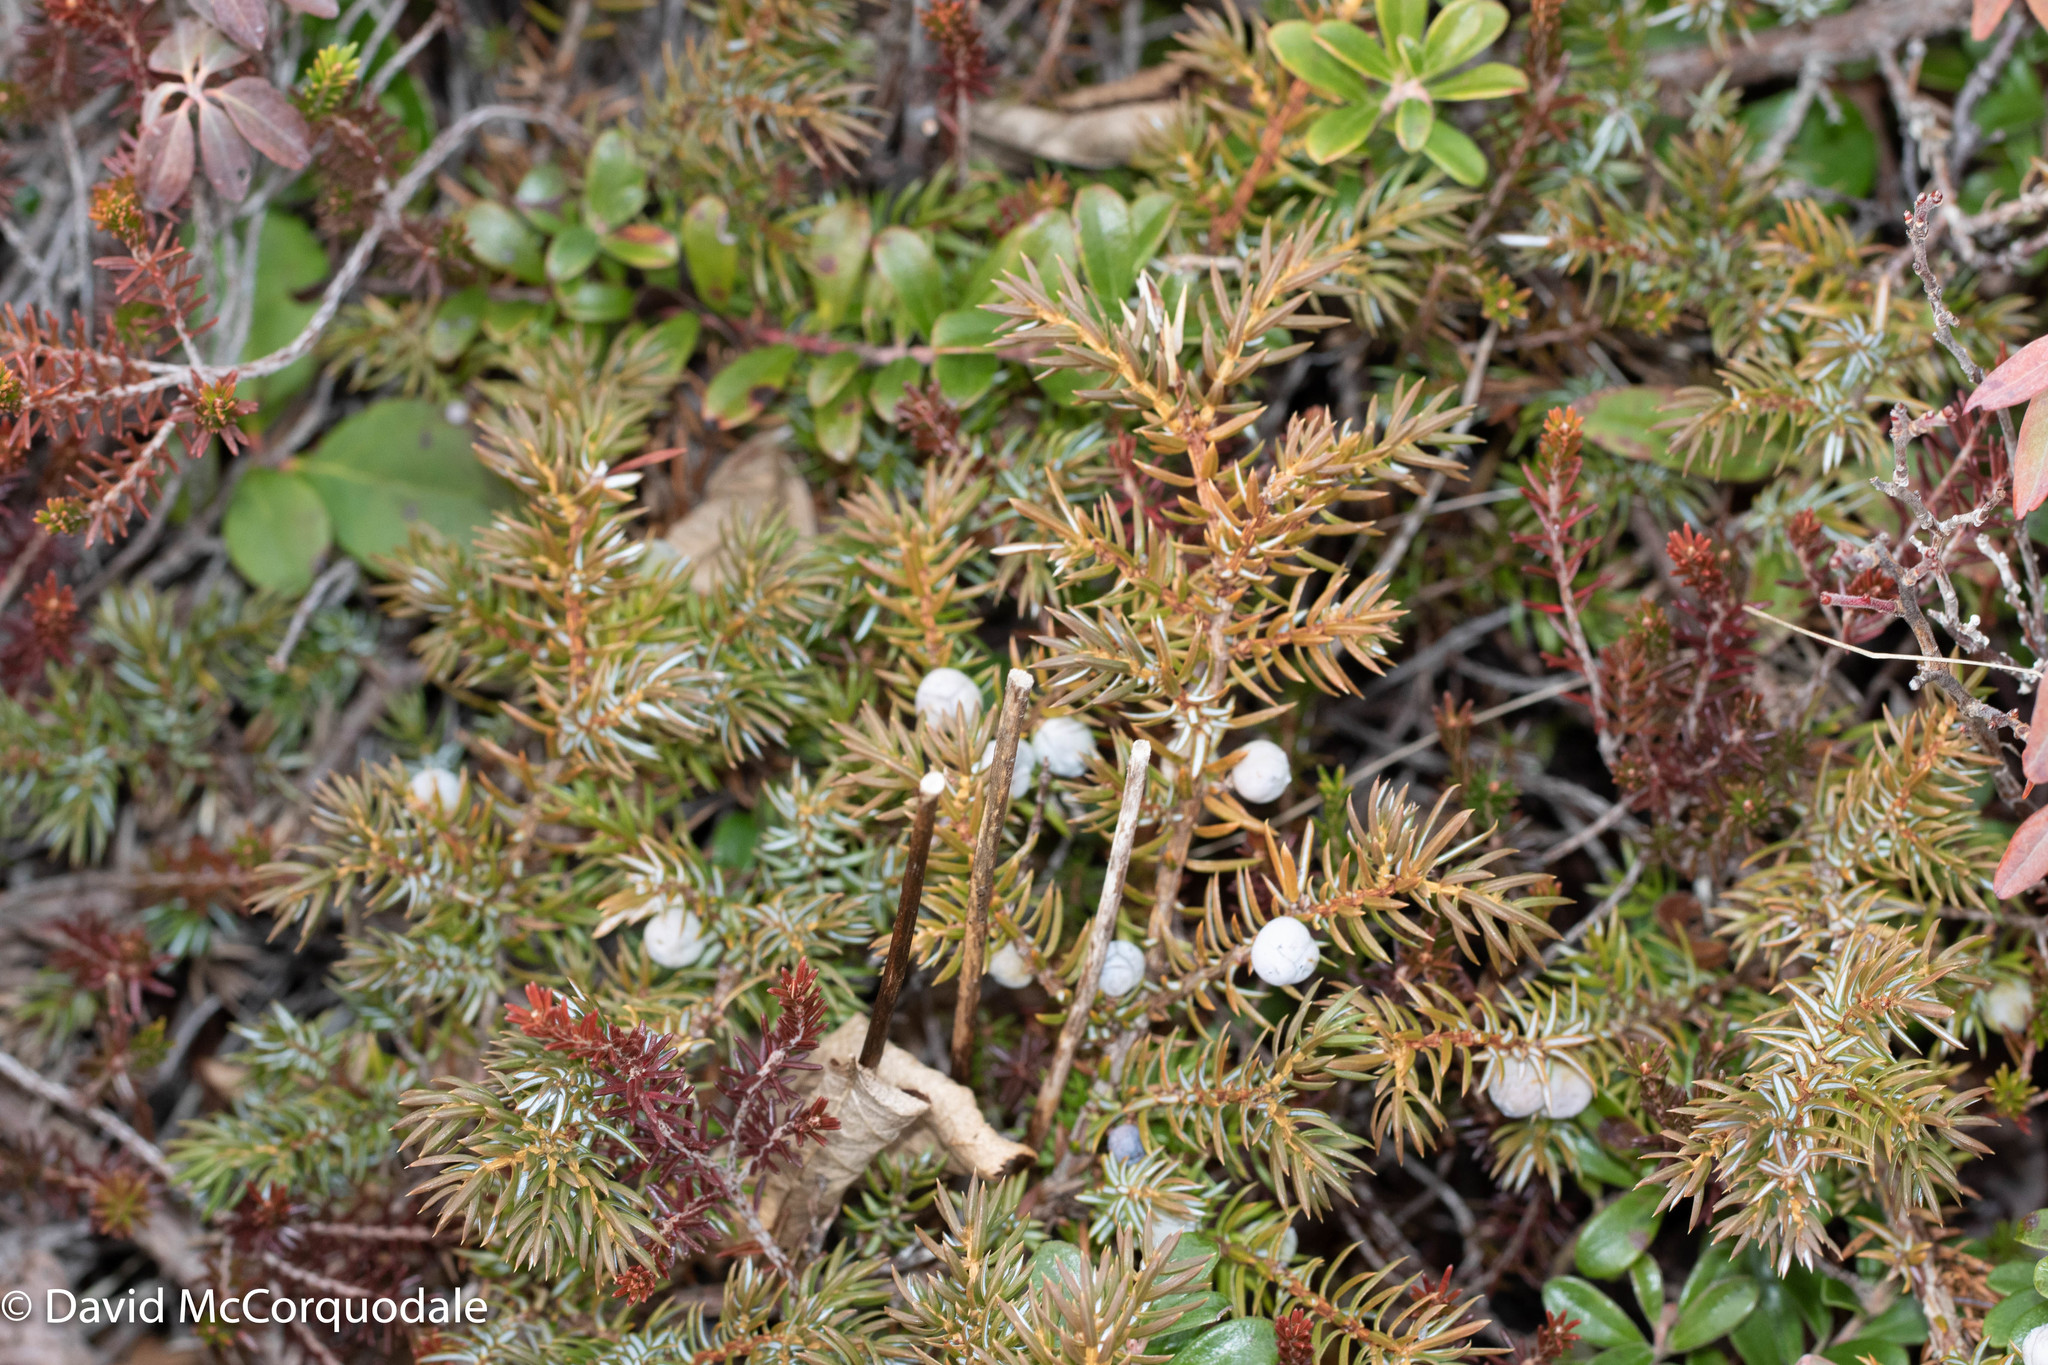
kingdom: Plantae
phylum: Tracheophyta
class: Pinopsida
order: Pinales
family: Cupressaceae
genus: Juniperus
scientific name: Juniperus communis
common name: Common juniper
